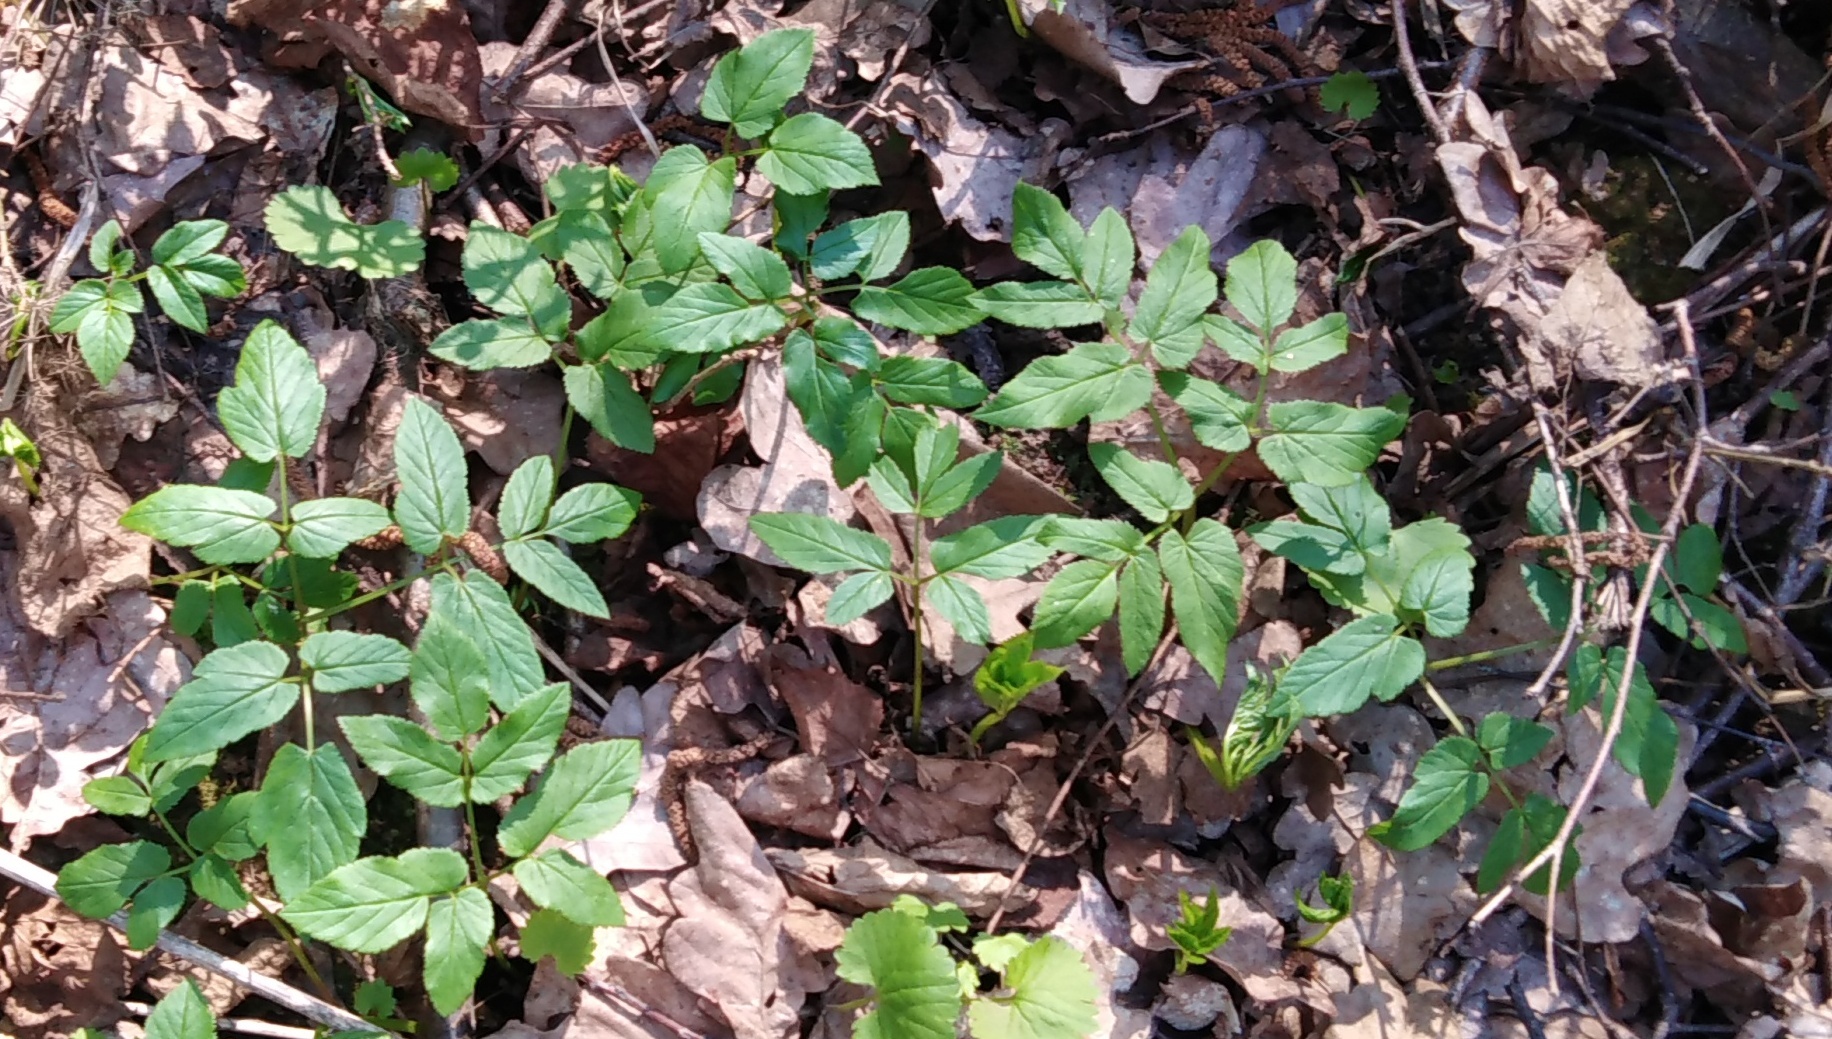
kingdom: Plantae
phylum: Tracheophyta
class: Magnoliopsida
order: Apiales
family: Apiaceae
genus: Aegopodium
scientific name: Aegopodium podagraria
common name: Ground-elder
